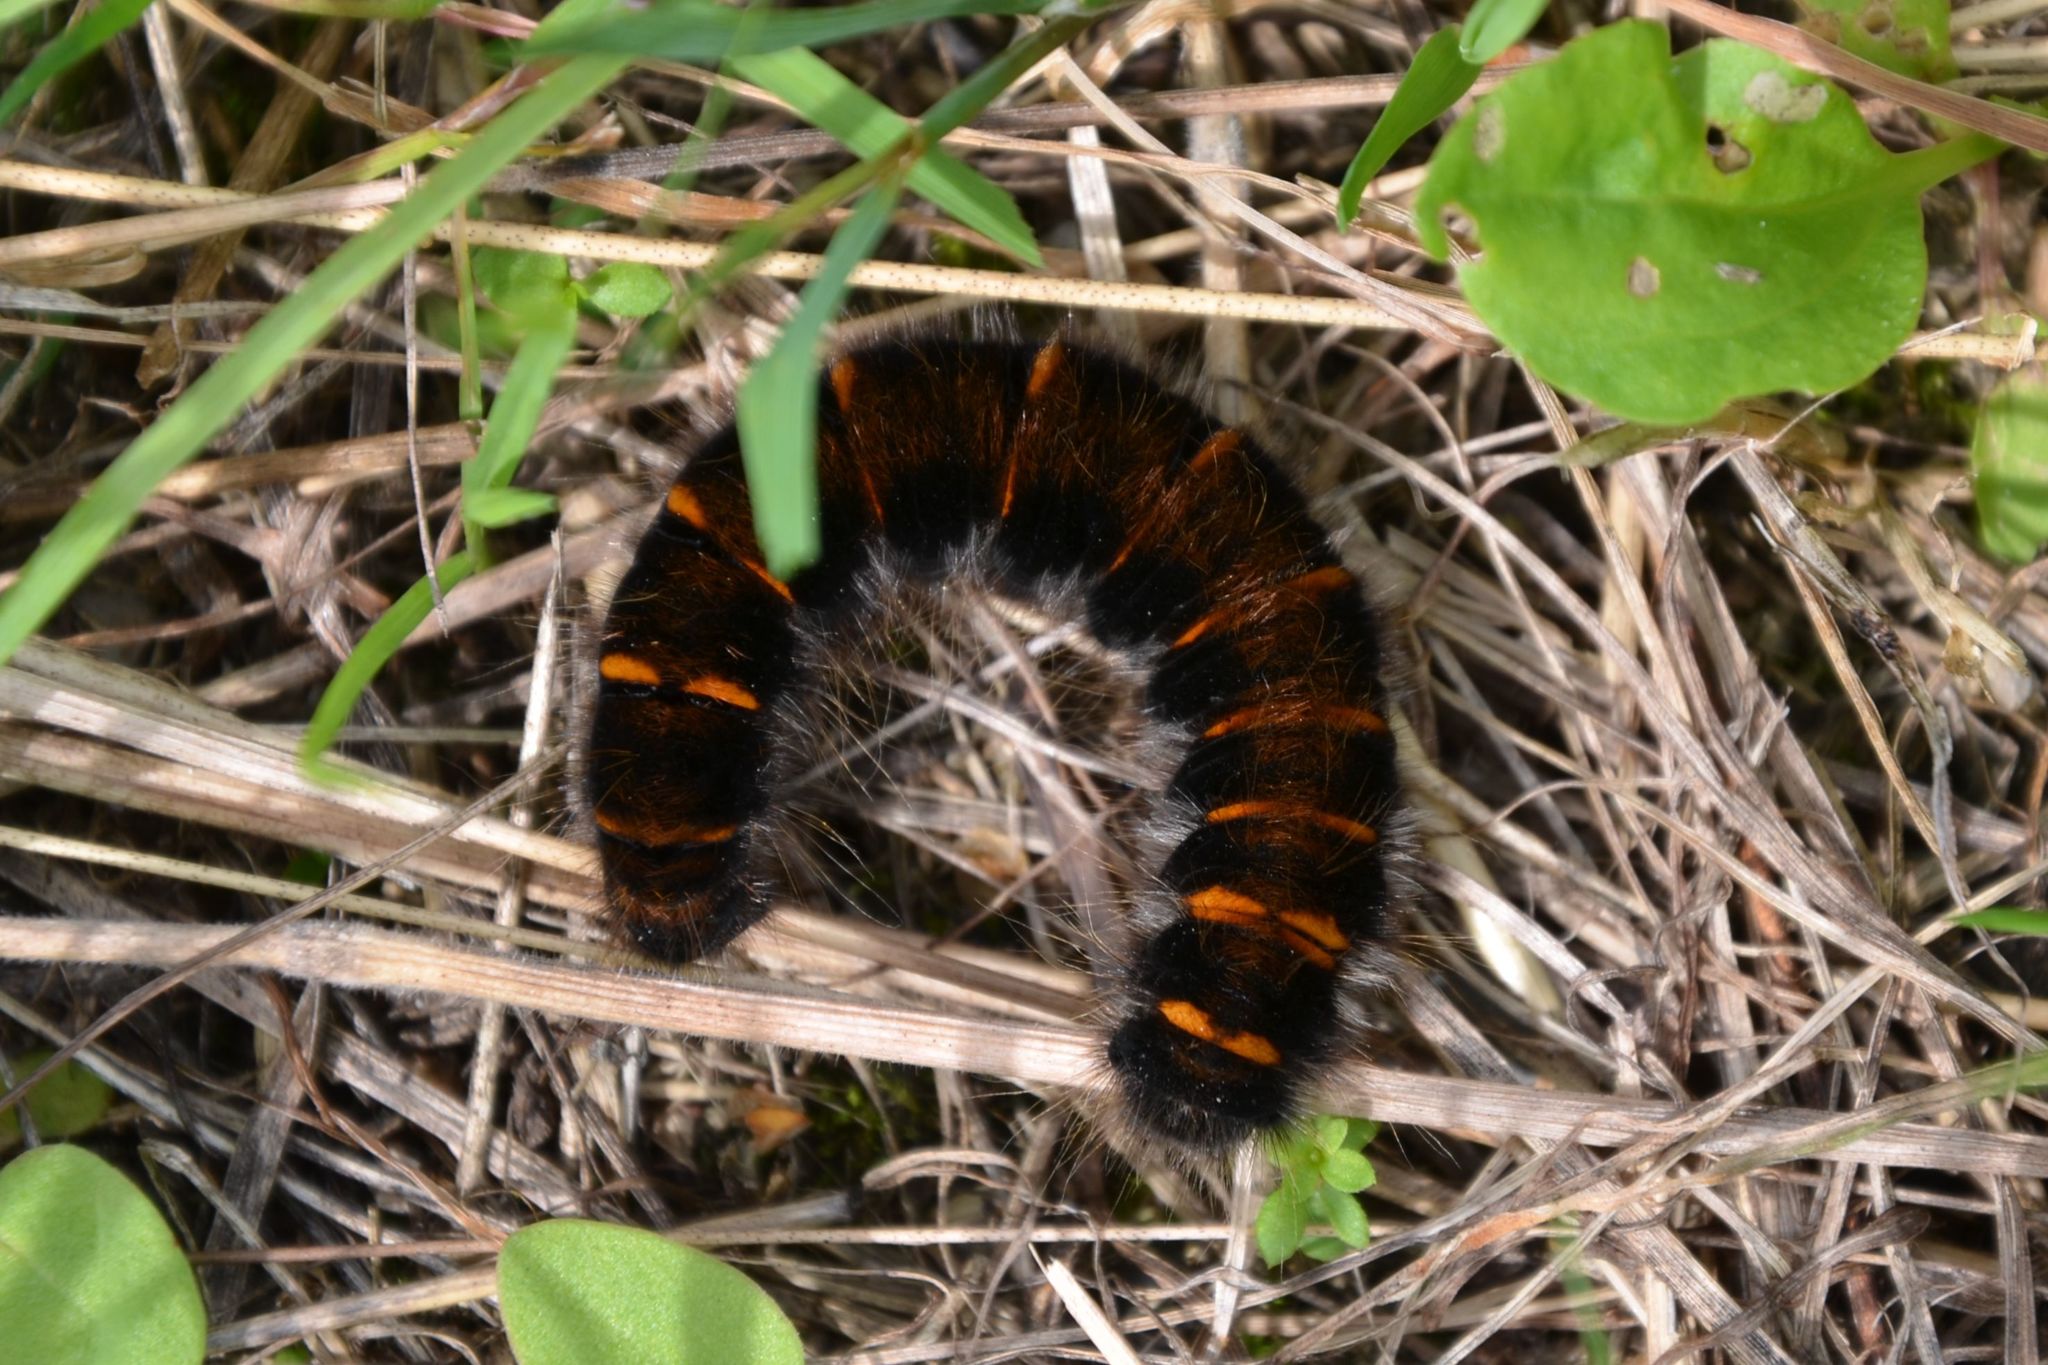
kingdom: Animalia
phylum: Arthropoda
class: Insecta
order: Lepidoptera
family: Lasiocampidae
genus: Macrothylacia
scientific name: Macrothylacia rubi
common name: Fox moth
